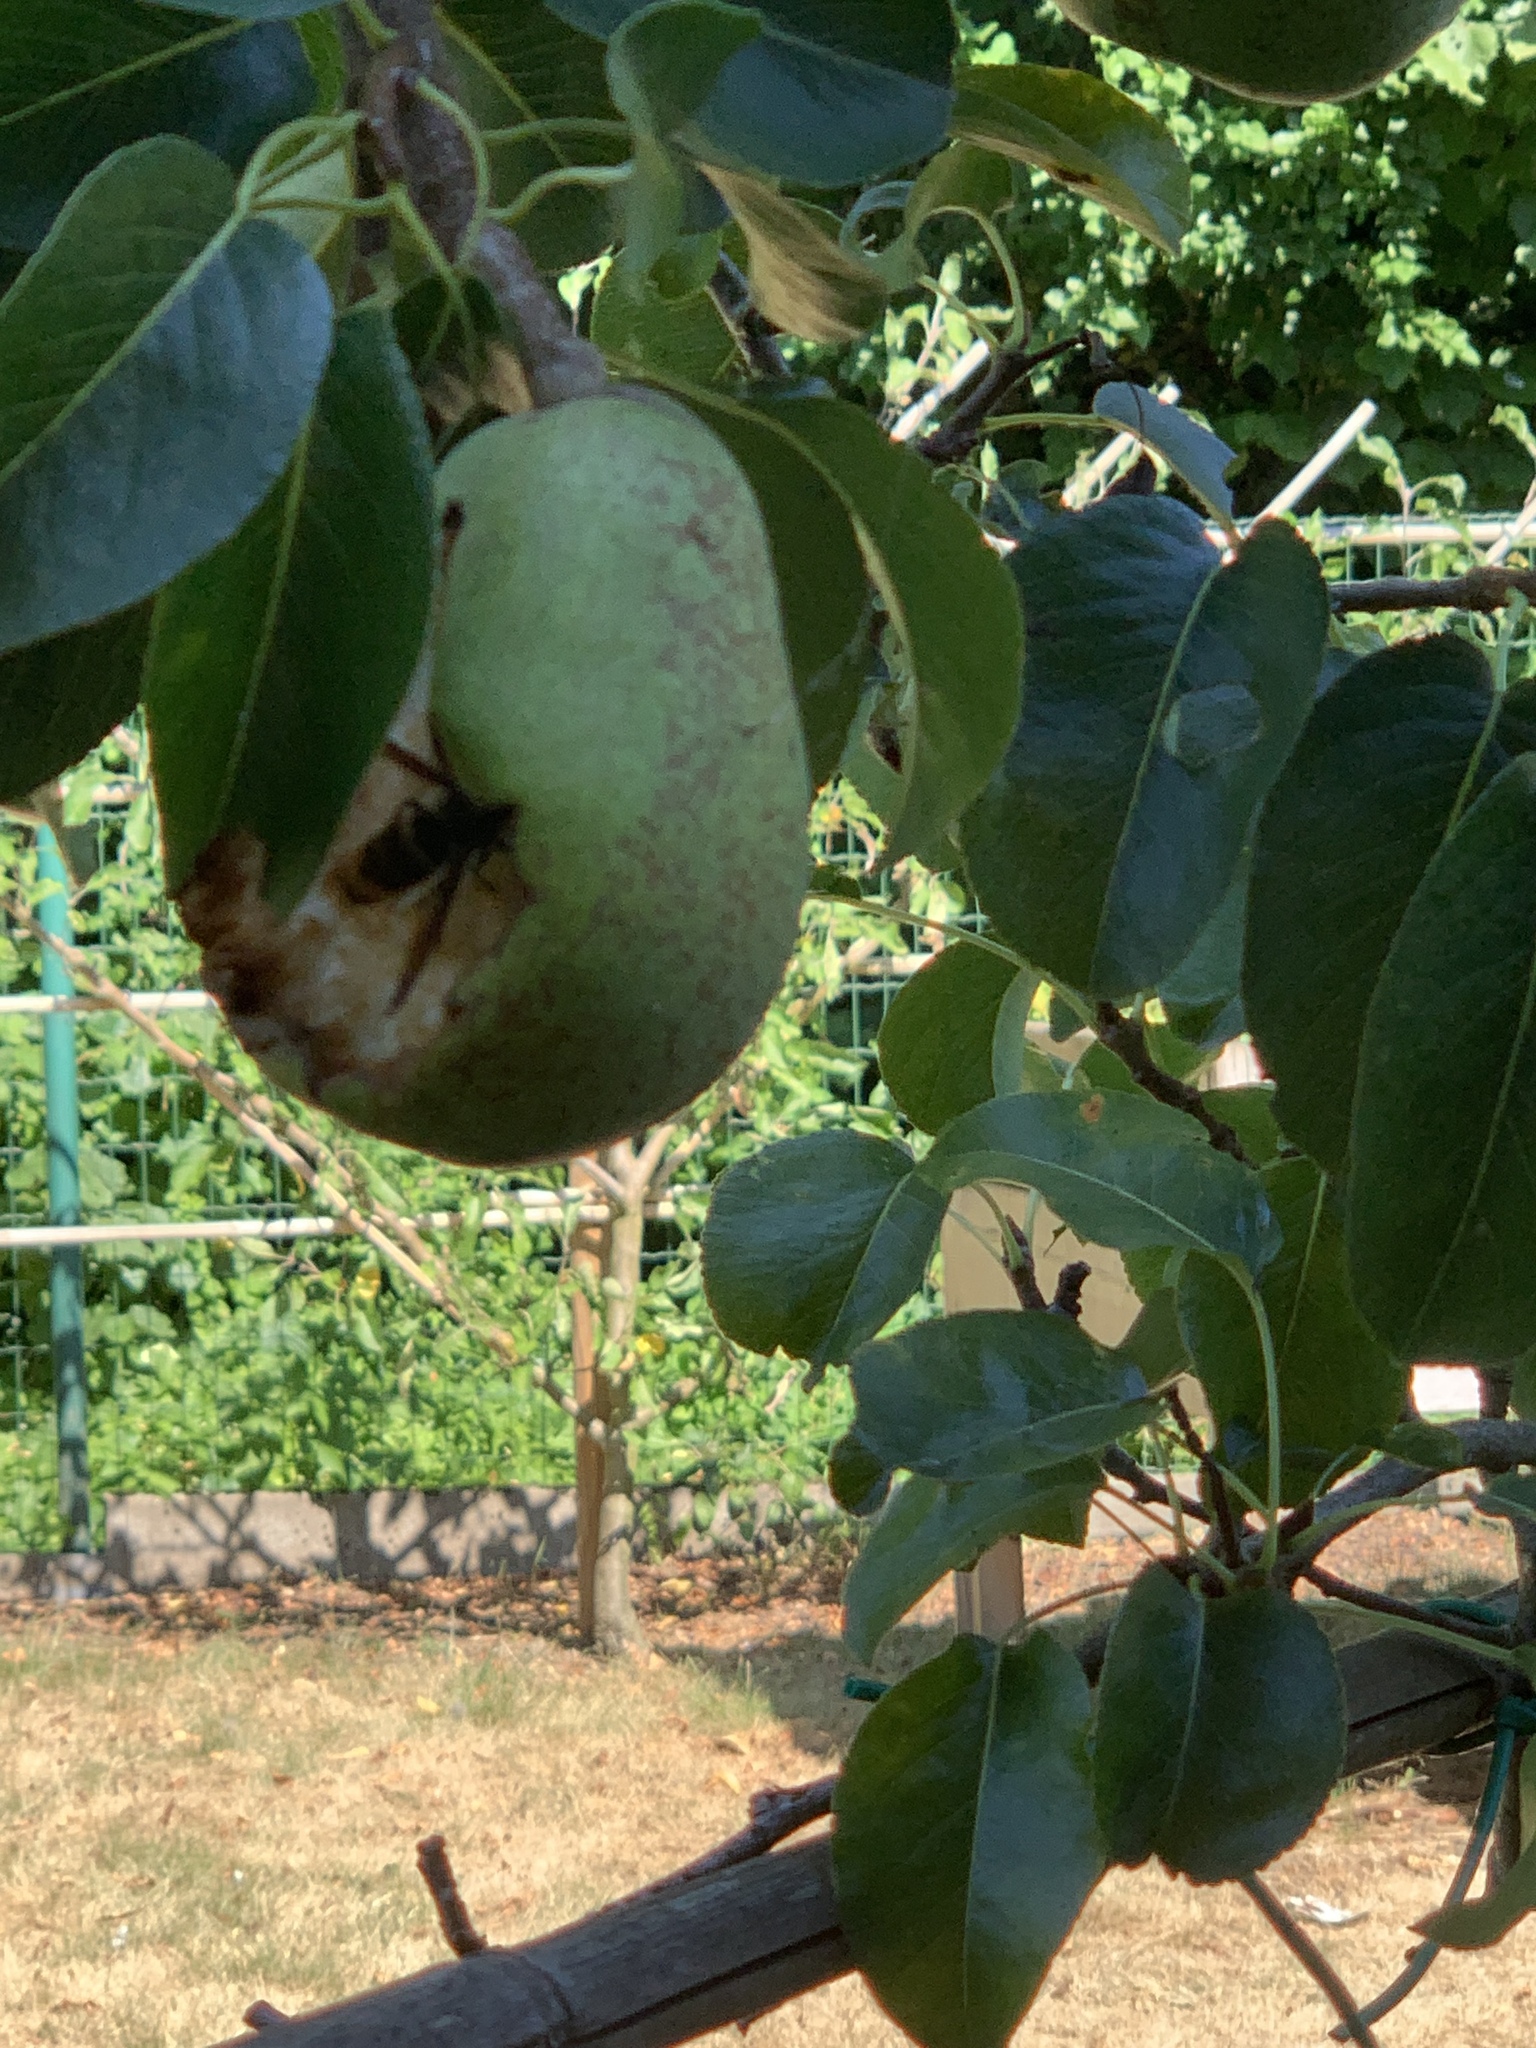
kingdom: Animalia
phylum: Arthropoda
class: Insecta
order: Hymenoptera
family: Vespidae
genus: Vespa
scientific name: Vespa velutina
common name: Asian hornet
